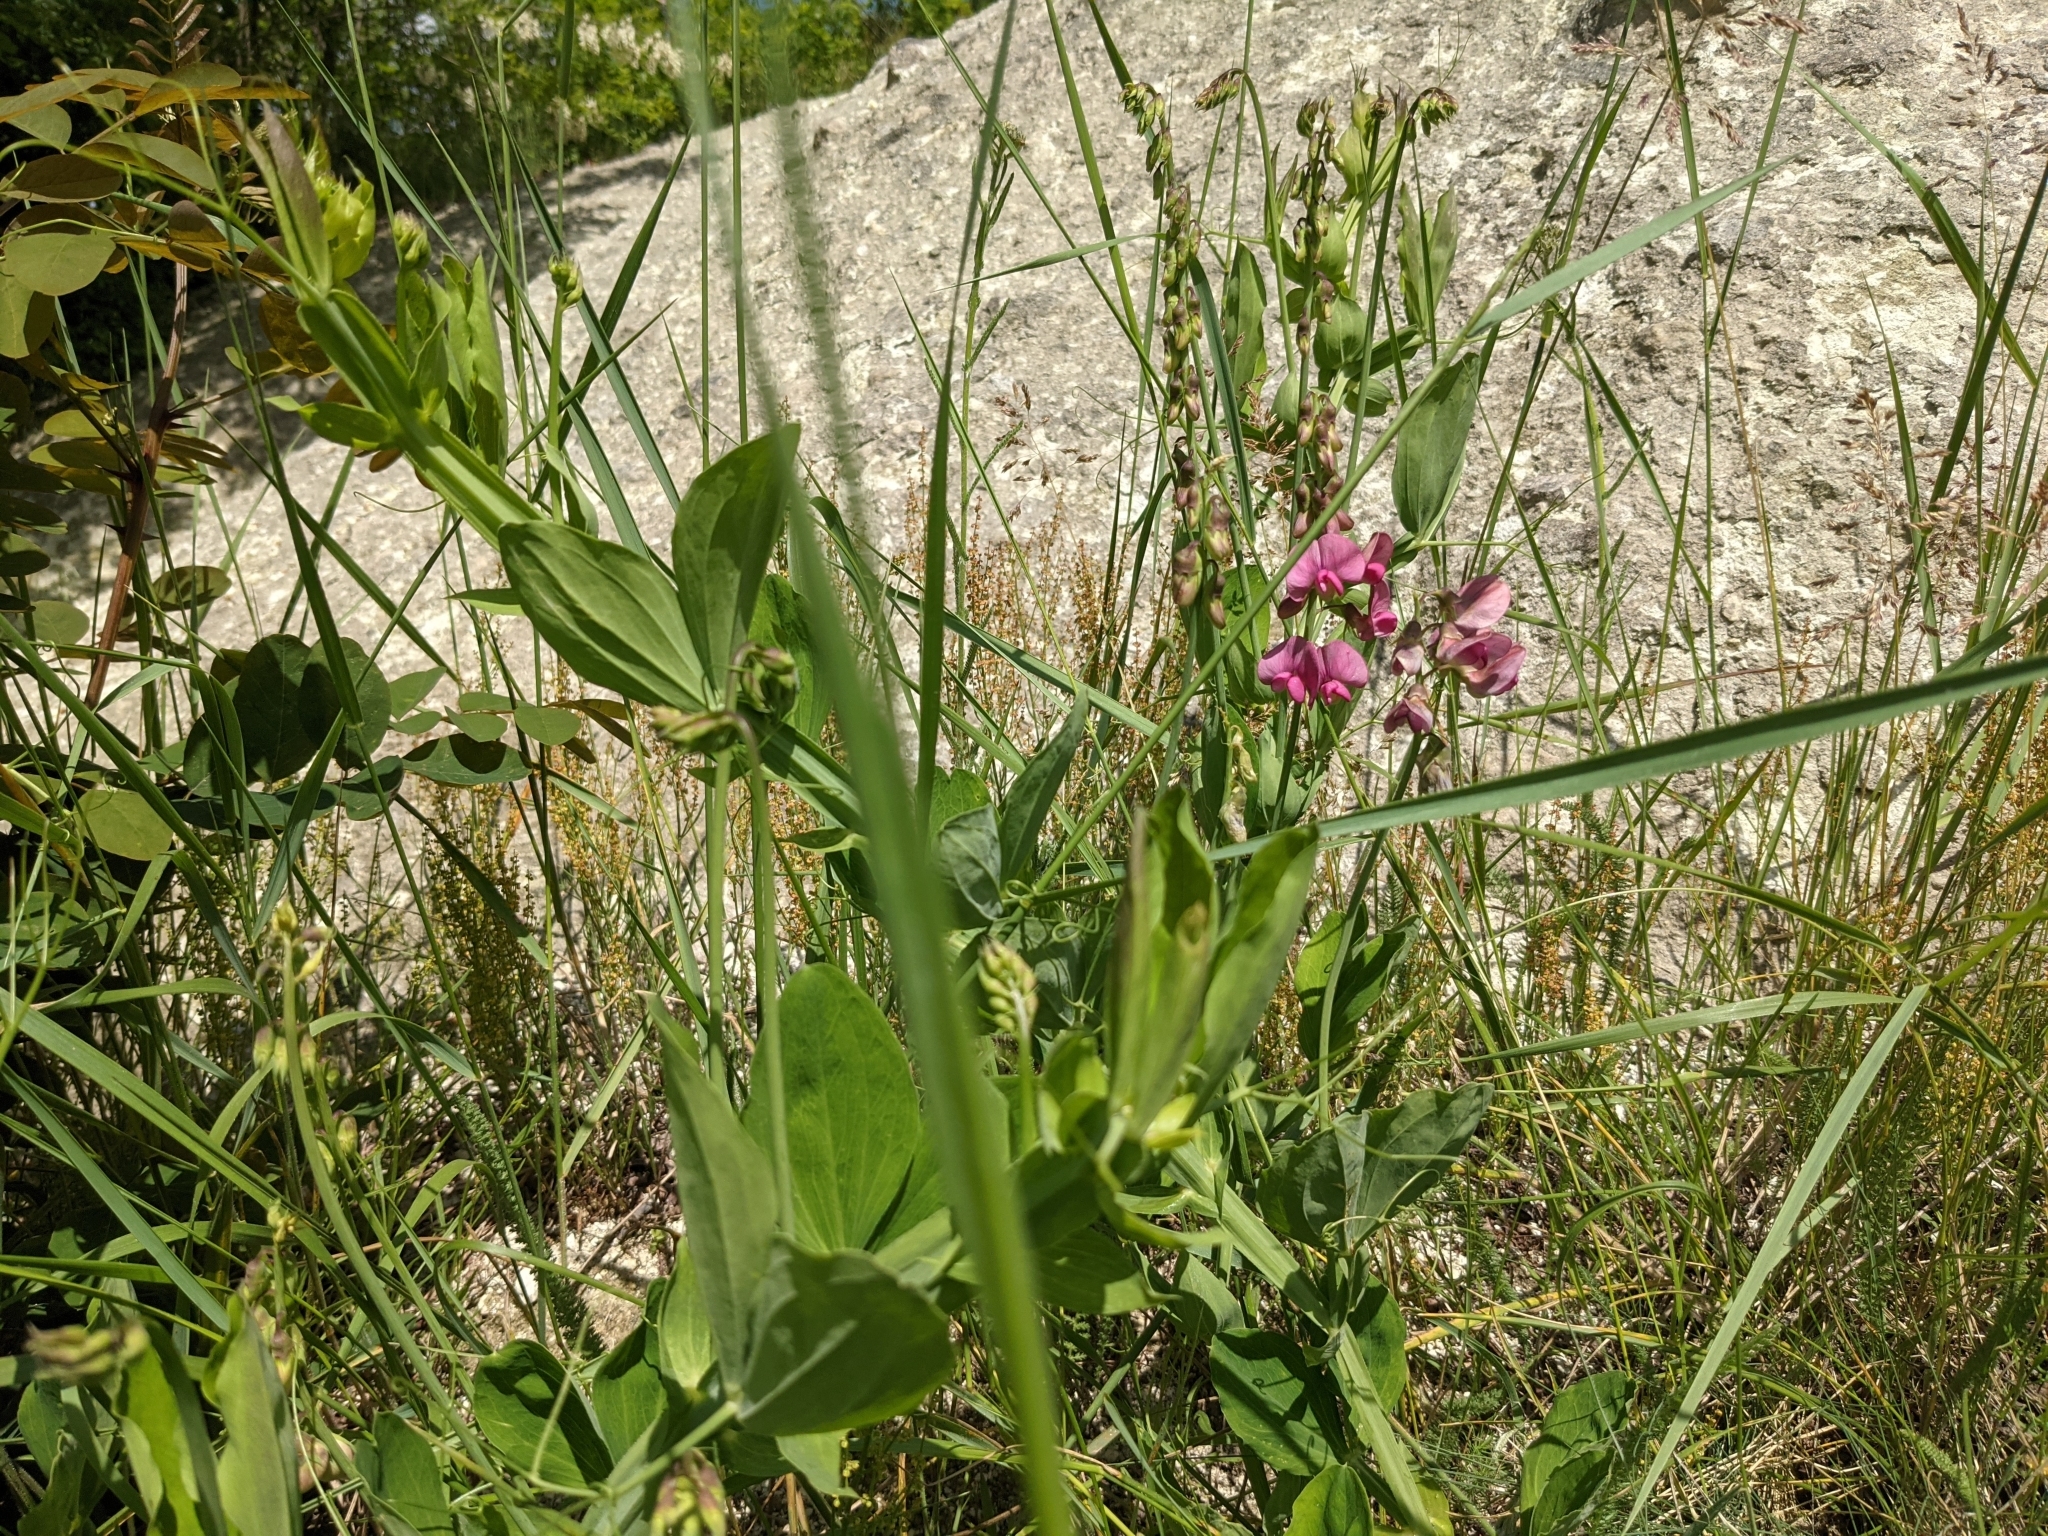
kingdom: Plantae
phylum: Tracheophyta
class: Magnoliopsida
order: Fabales
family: Fabaceae
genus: Lathyrus
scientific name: Lathyrus latifolius
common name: Perennial pea
